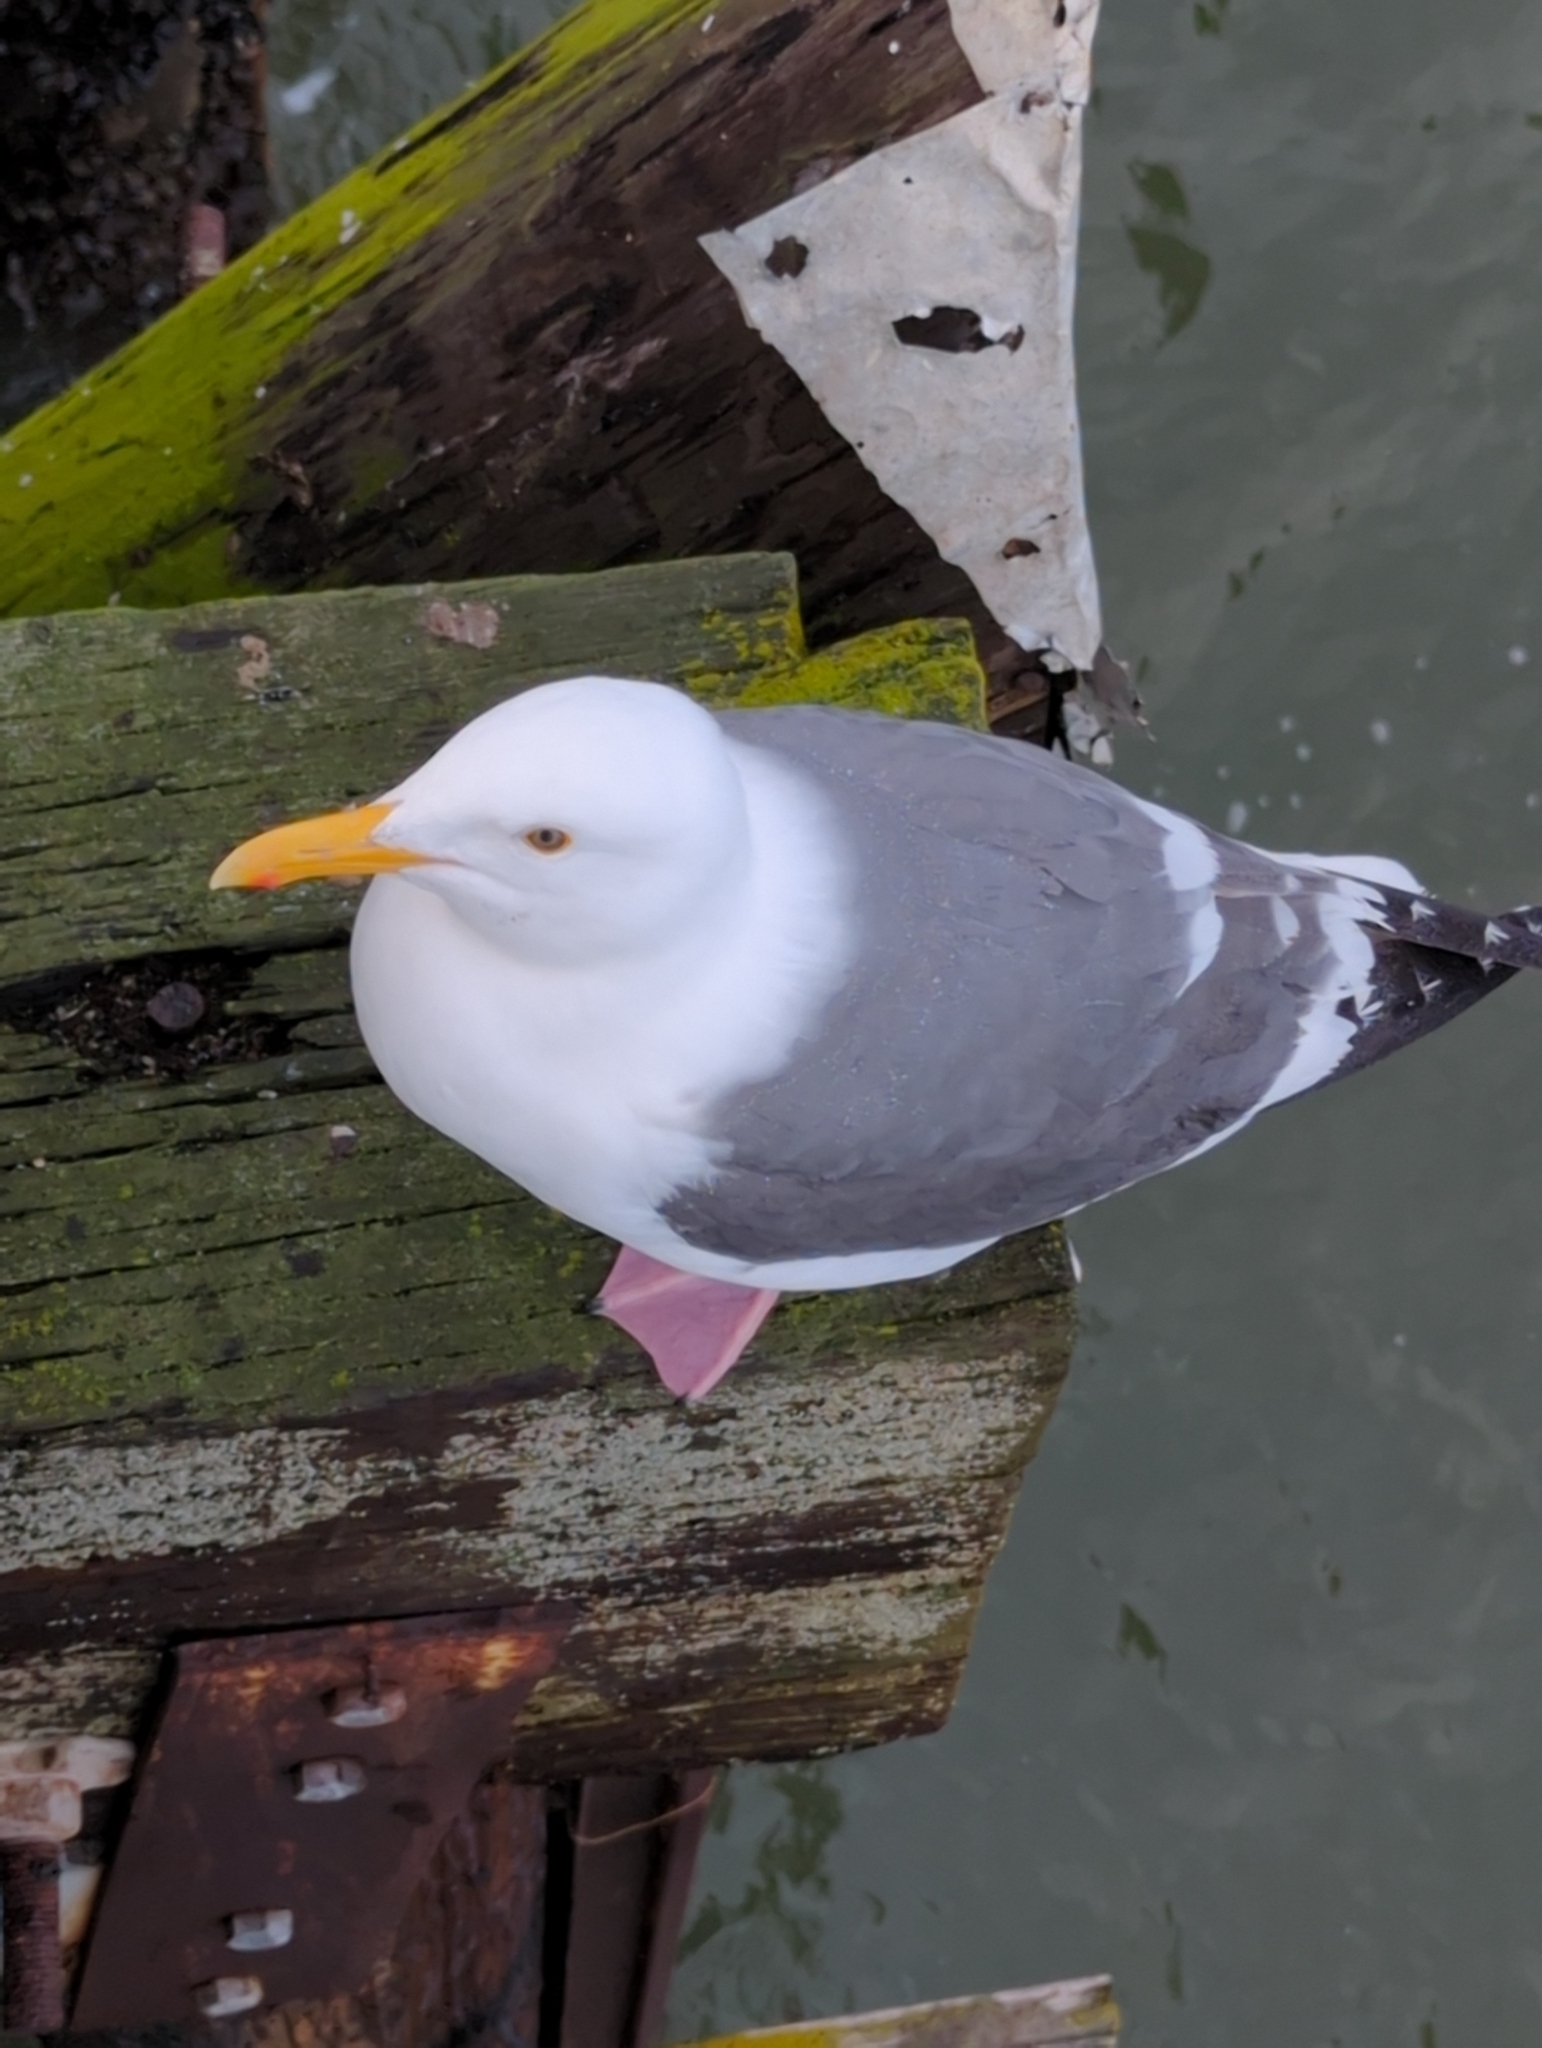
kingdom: Animalia
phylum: Chordata
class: Aves
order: Charadriiformes
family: Laridae
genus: Larus
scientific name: Larus occidentalis
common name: Western gull
